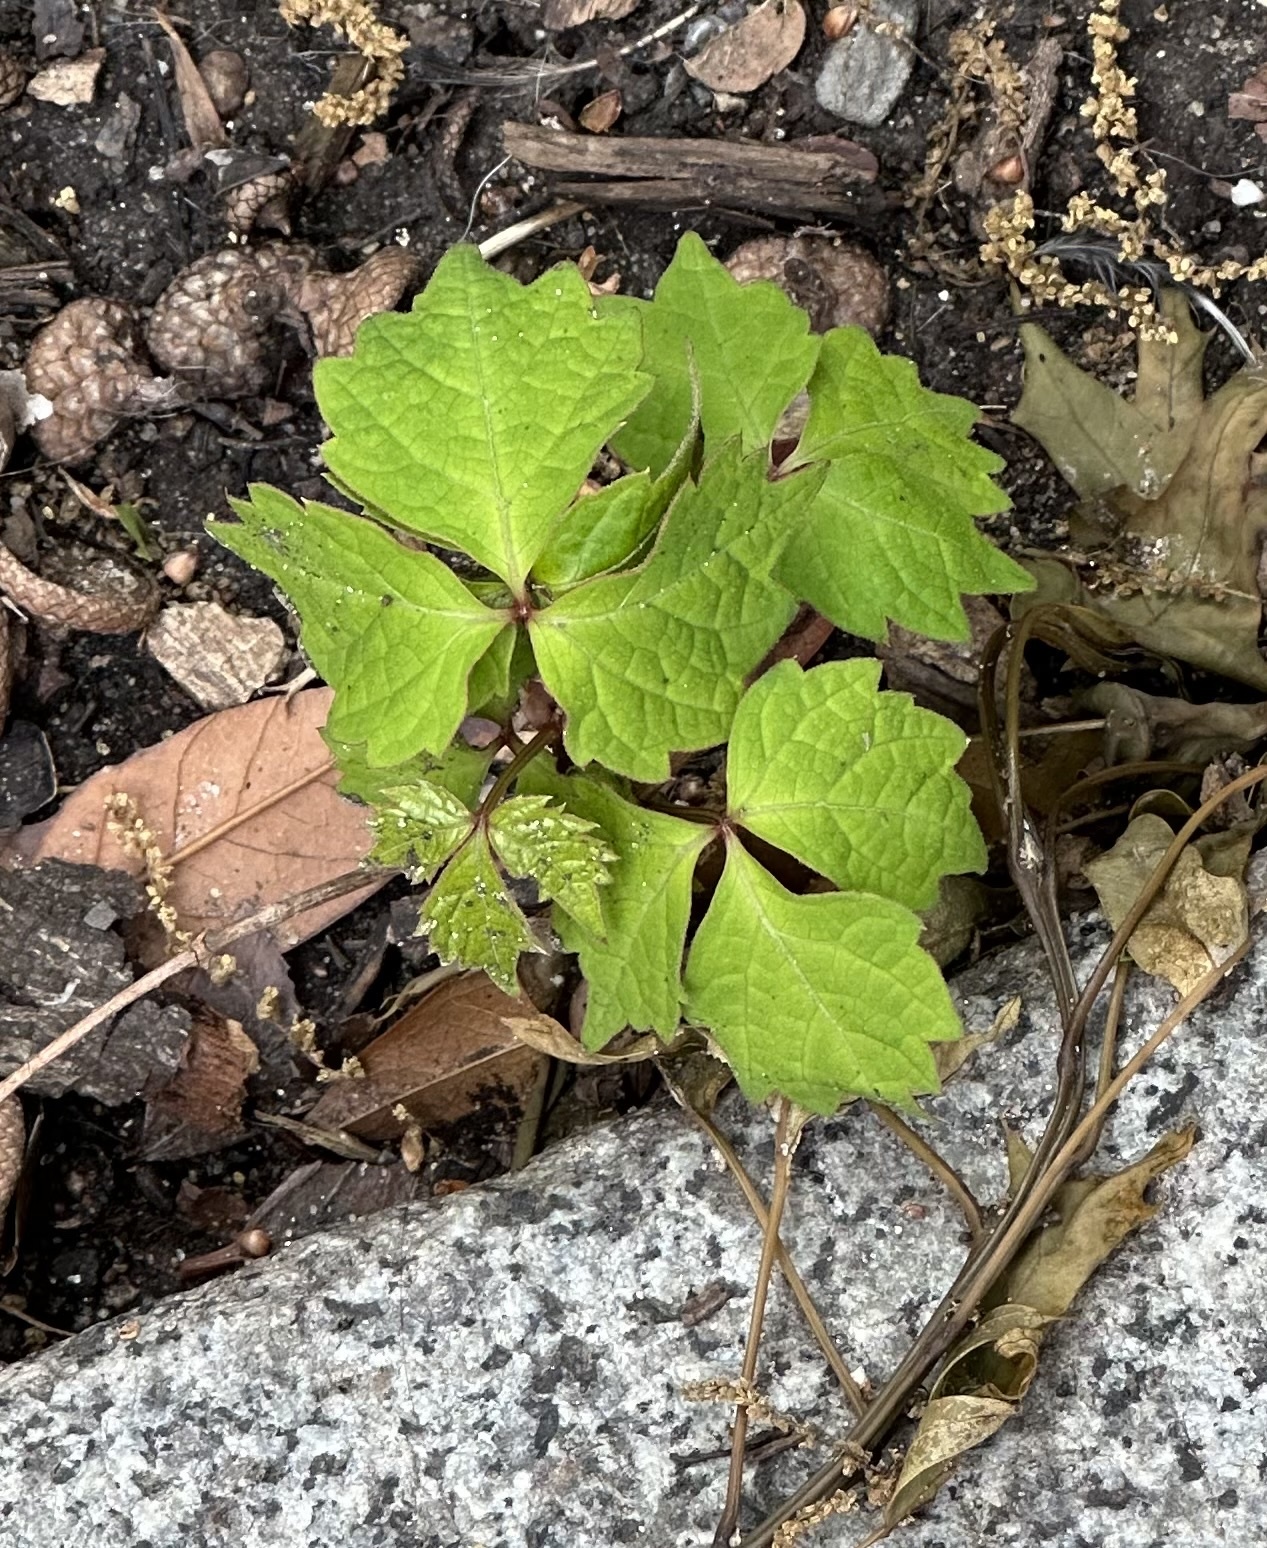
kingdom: Plantae
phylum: Tracheophyta
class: Magnoliopsida
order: Vitales
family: Vitaceae
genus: Parthenocissus
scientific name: Parthenocissus tricuspidata
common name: Boston ivy
